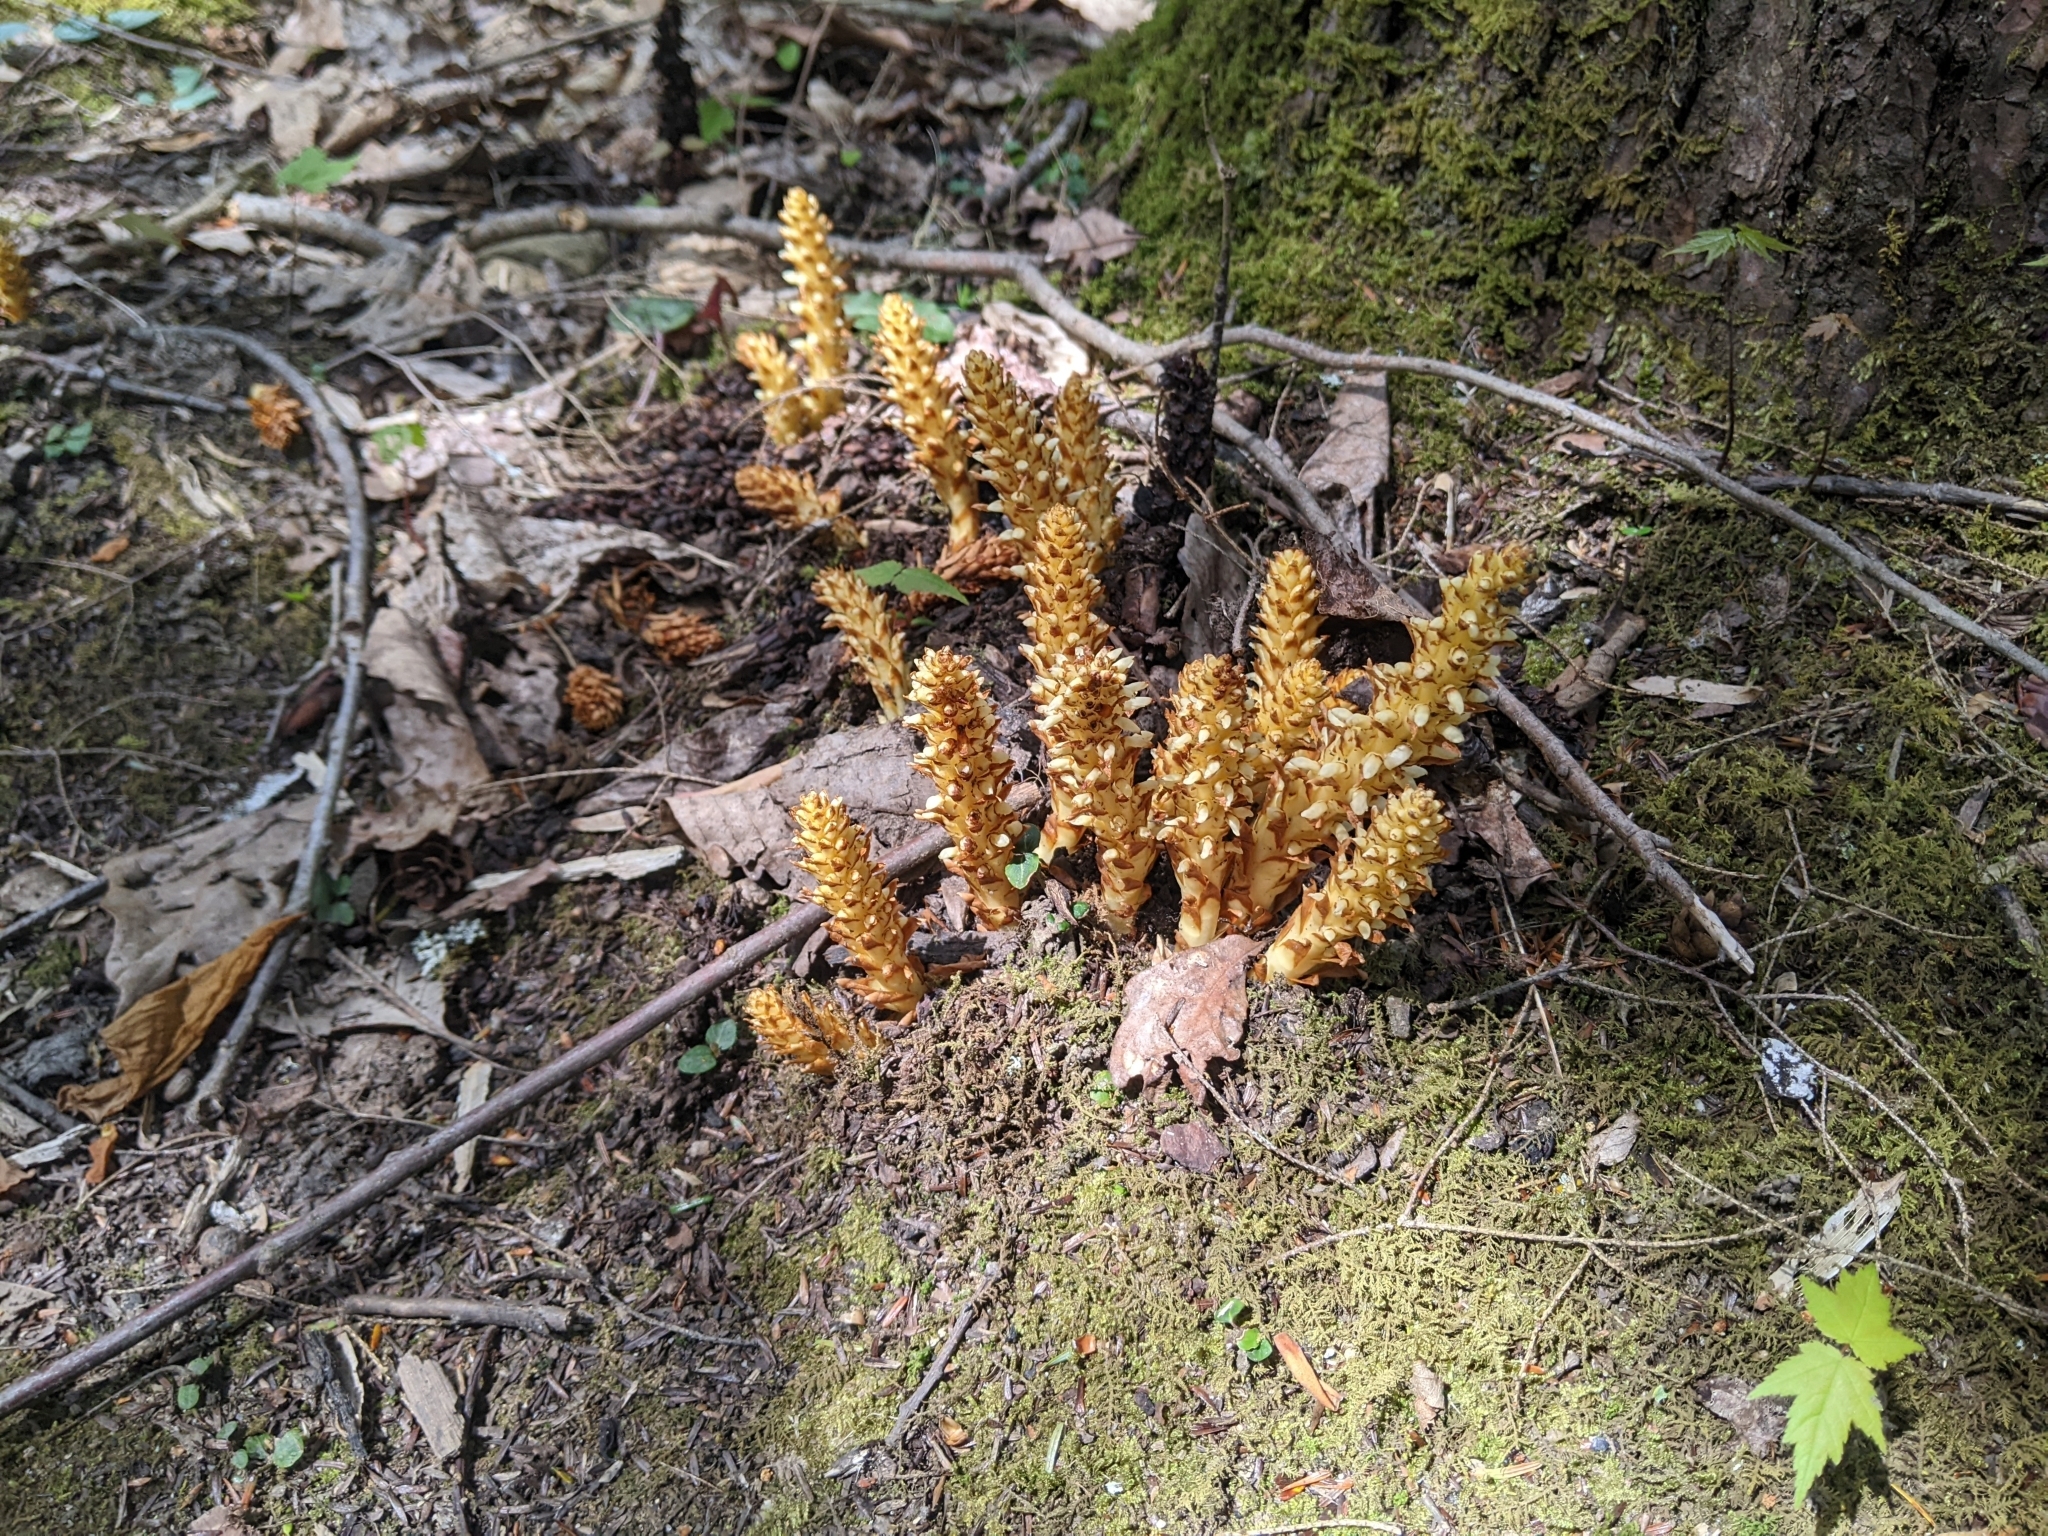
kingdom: Plantae
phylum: Tracheophyta
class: Magnoliopsida
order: Lamiales
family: Orobanchaceae
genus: Conopholis
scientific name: Conopholis americana
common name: American cancer-root
